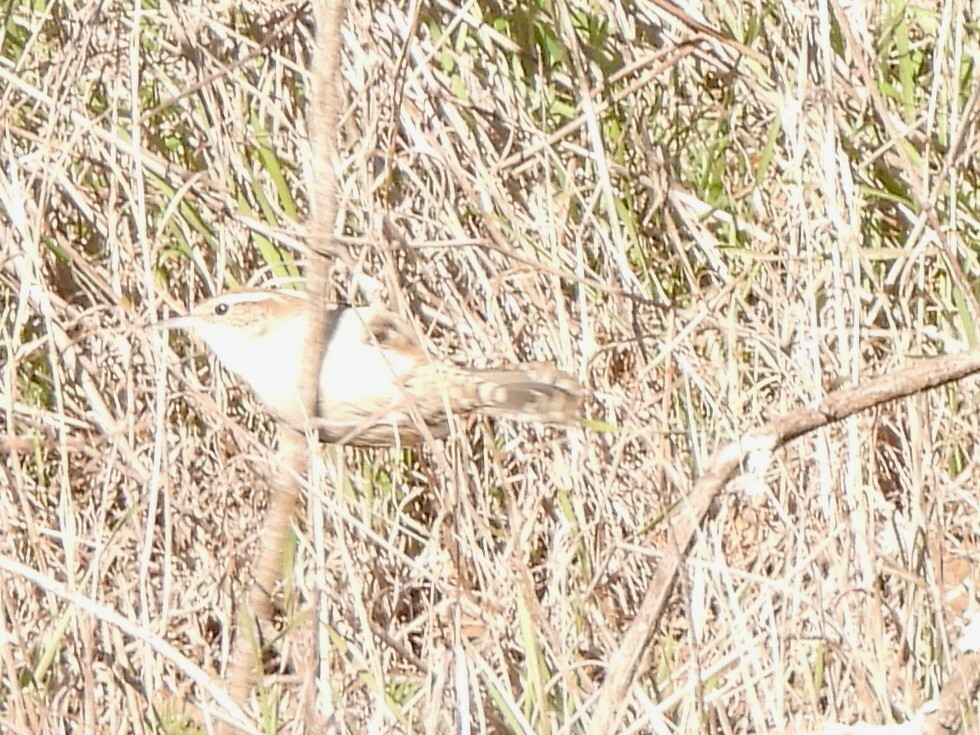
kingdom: Animalia
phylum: Chordata
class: Aves
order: Passeriformes
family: Troglodytidae
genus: Thryomanes
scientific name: Thryomanes bewickii
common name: Bewick's wren
